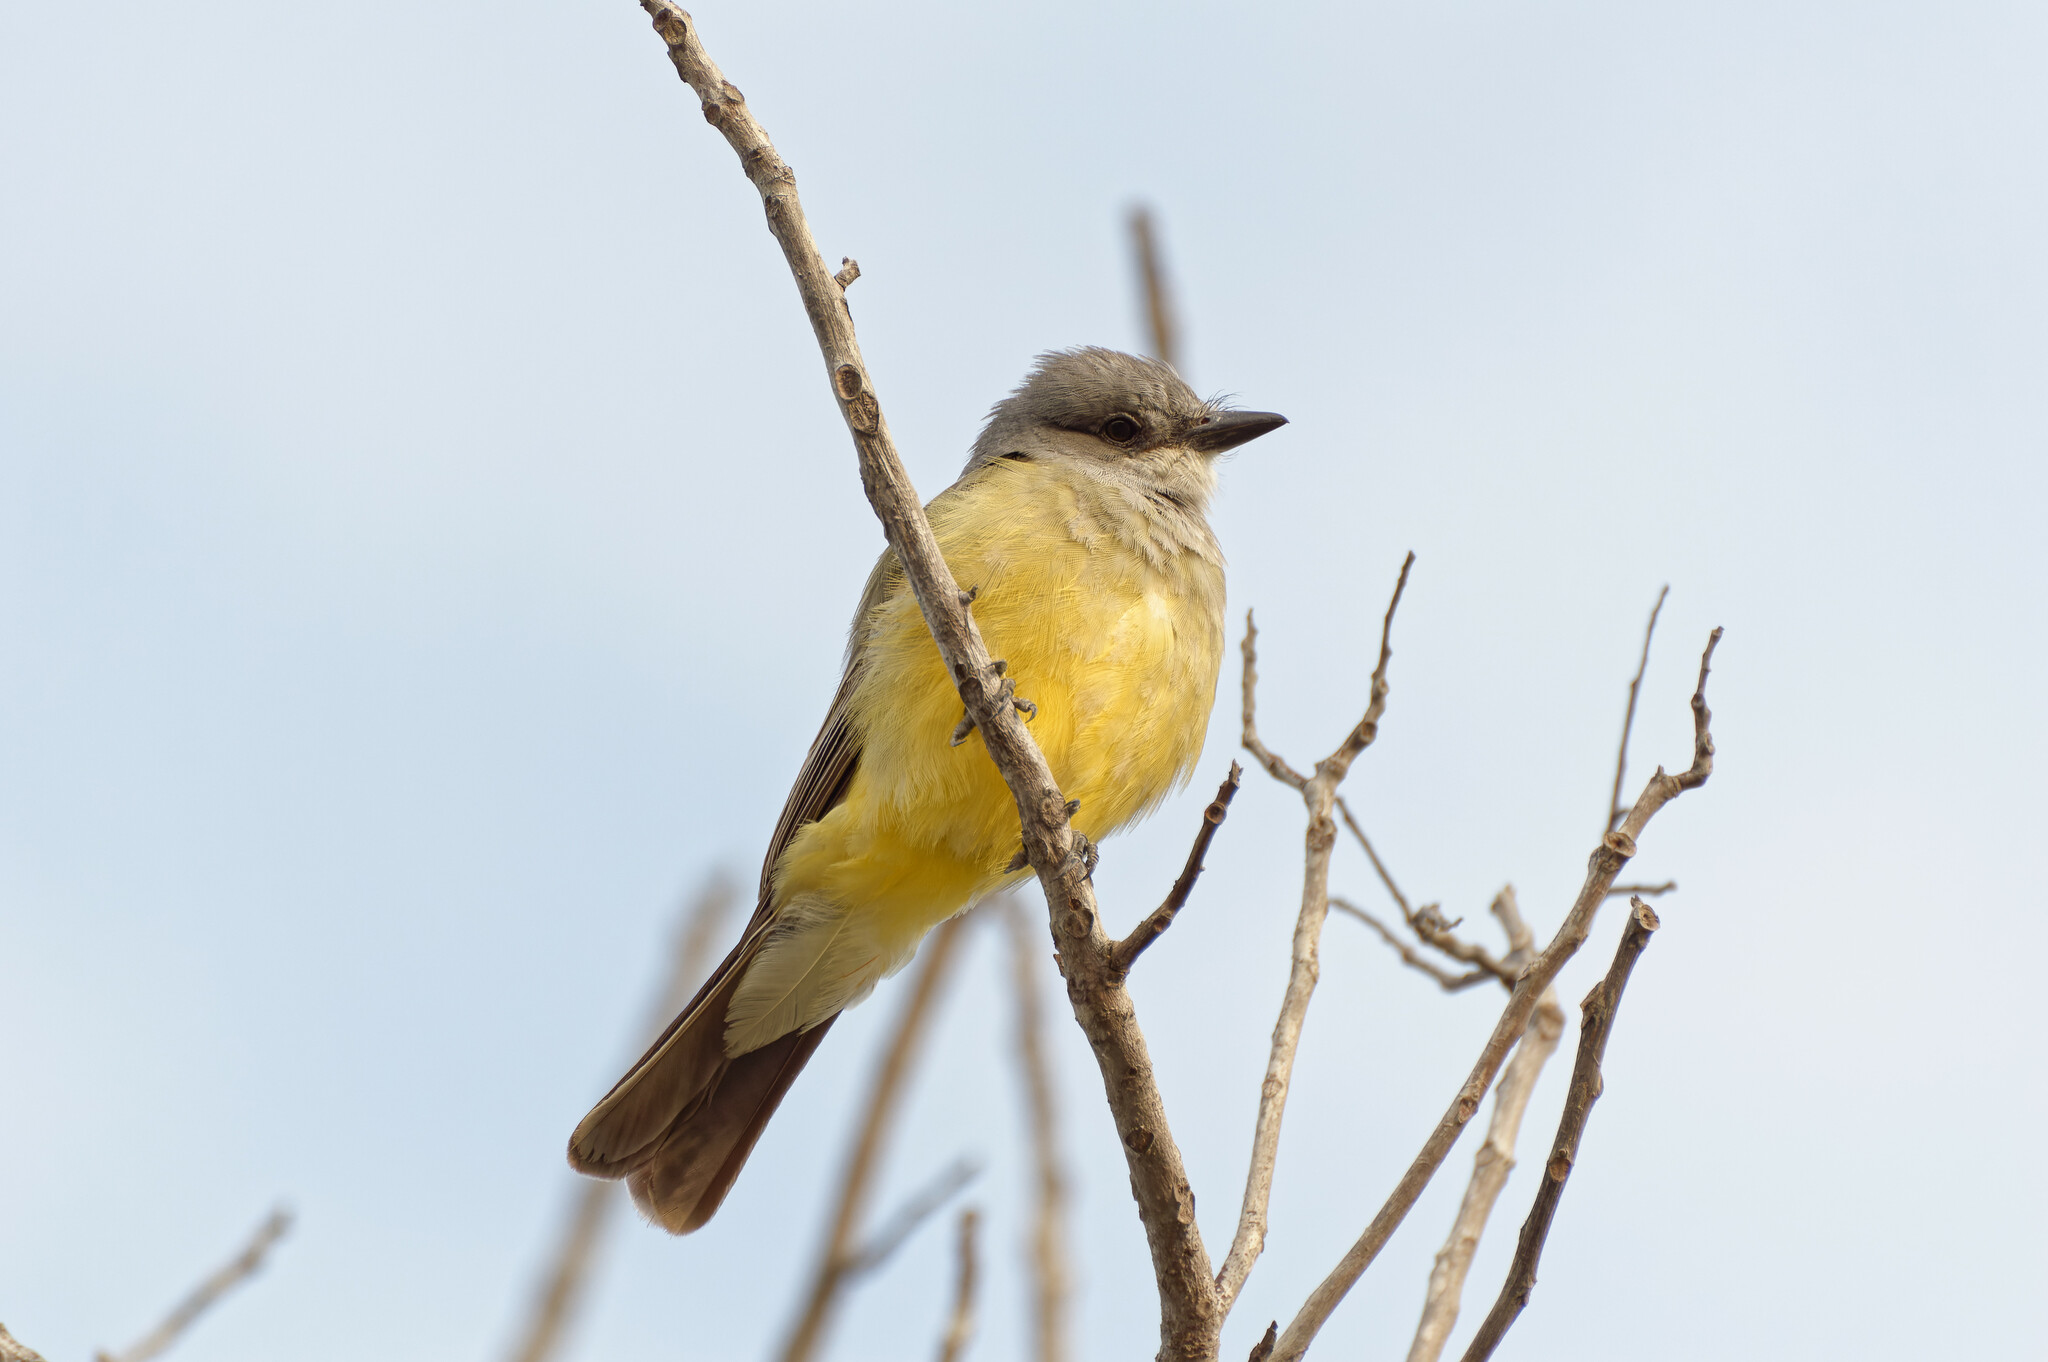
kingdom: Animalia
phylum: Chordata
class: Aves
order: Passeriformes
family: Tyrannidae
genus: Tyrannus
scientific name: Tyrannus vociferans
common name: Cassin's kingbird
